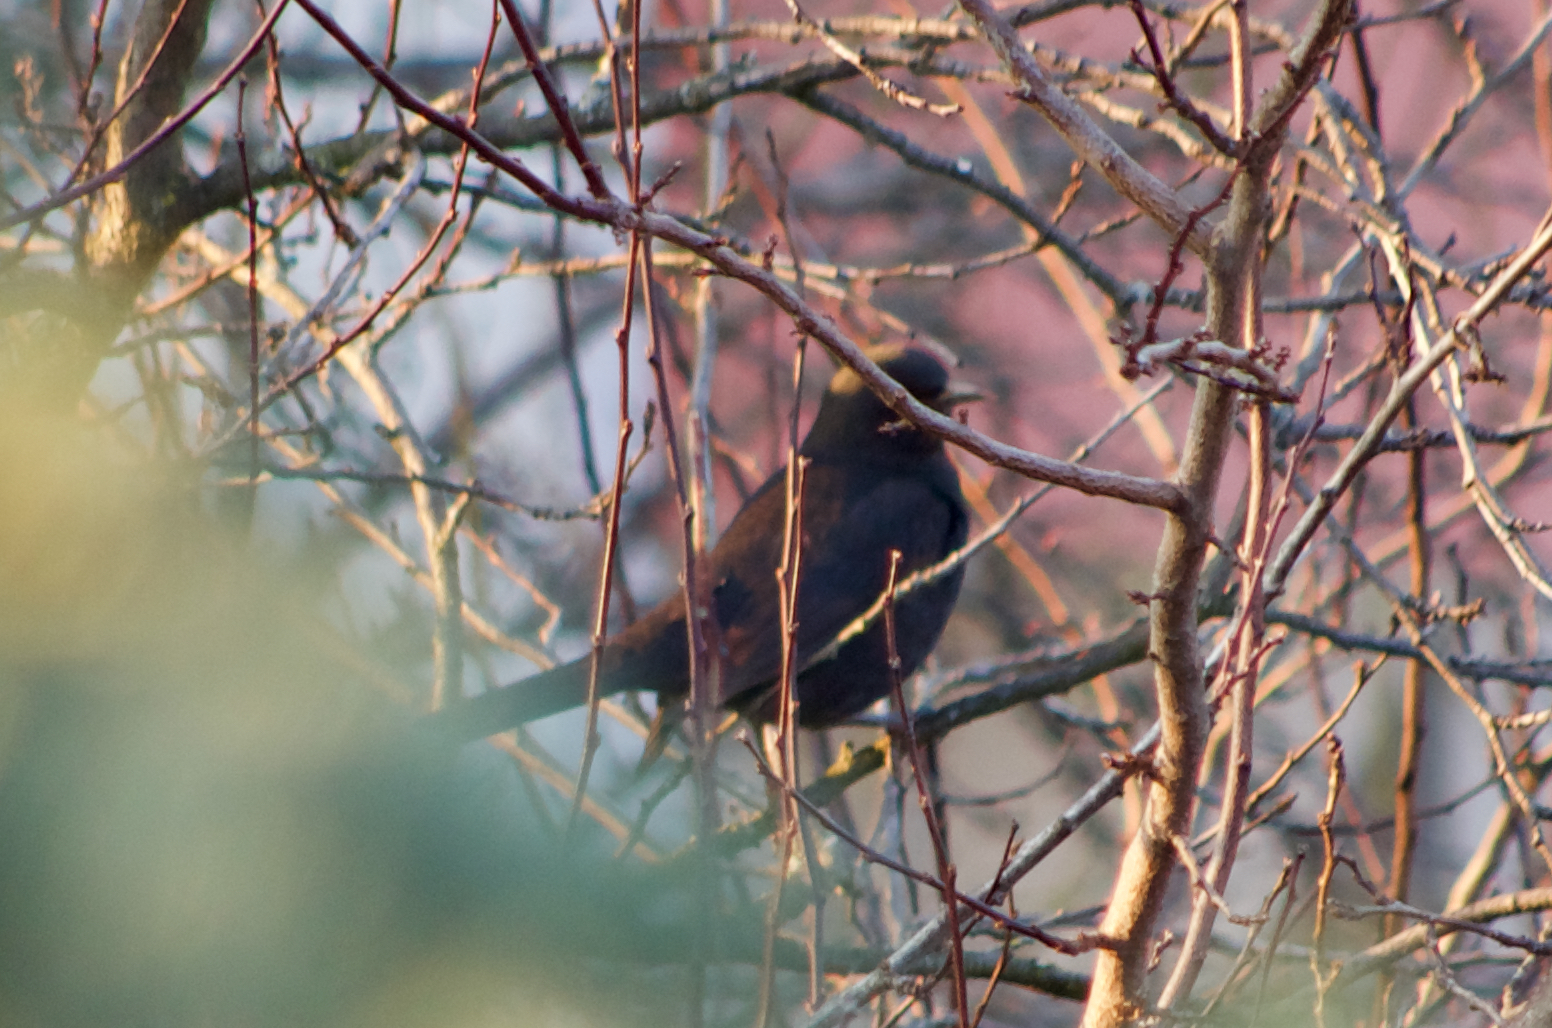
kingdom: Animalia
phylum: Chordata
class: Aves
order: Passeriformes
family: Turdidae
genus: Turdus
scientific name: Turdus merula
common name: Common blackbird
